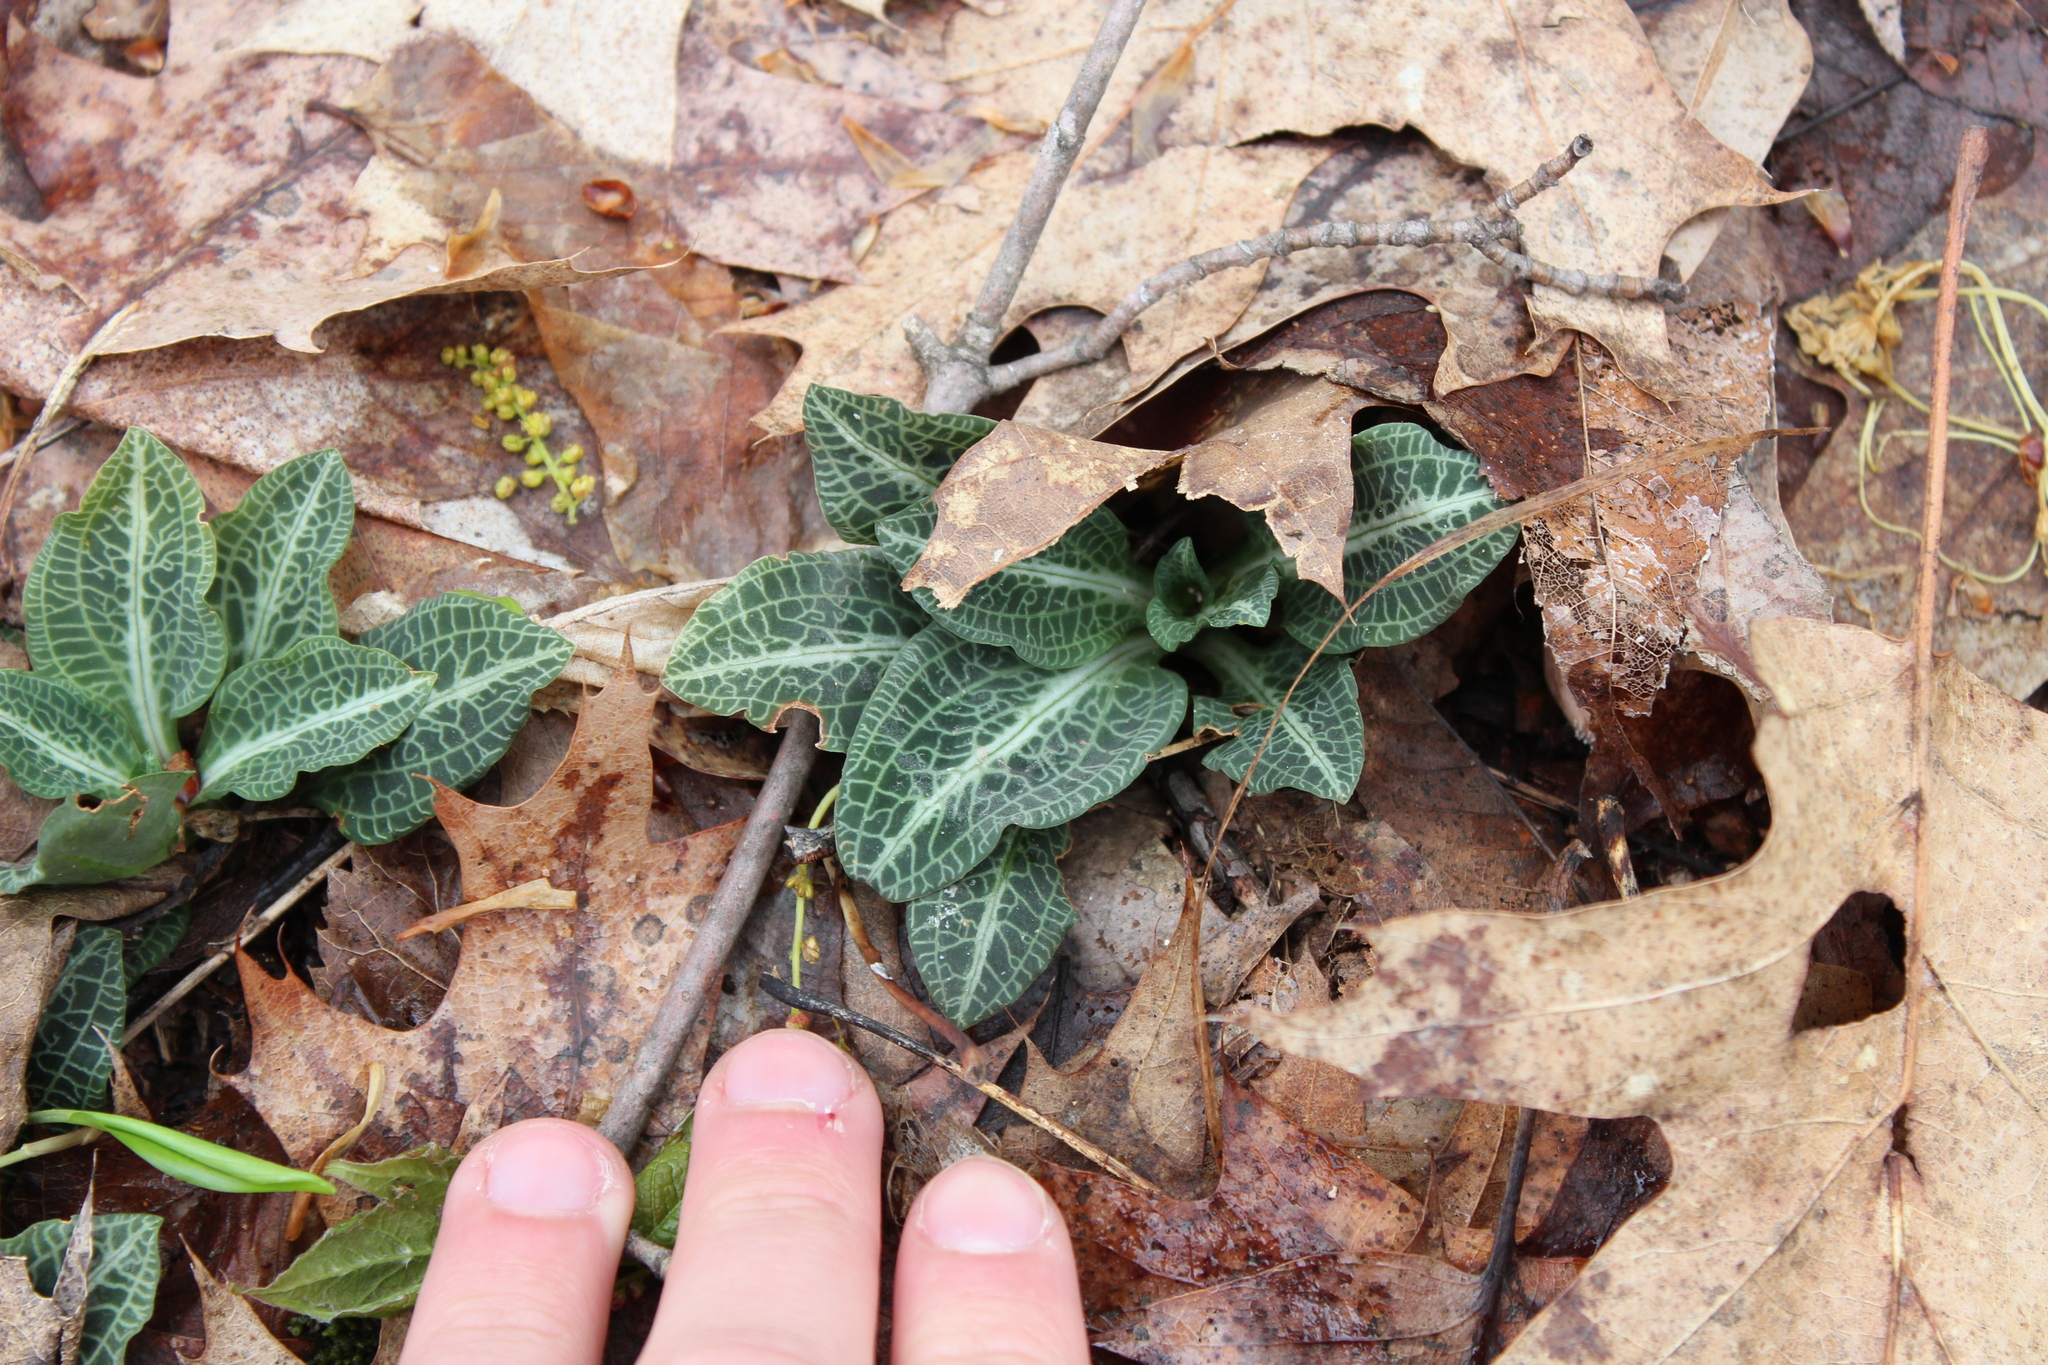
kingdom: Plantae
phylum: Tracheophyta
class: Liliopsida
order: Asparagales
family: Orchidaceae
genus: Goodyera
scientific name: Goodyera pubescens
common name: Downy rattlesnake-plantain
